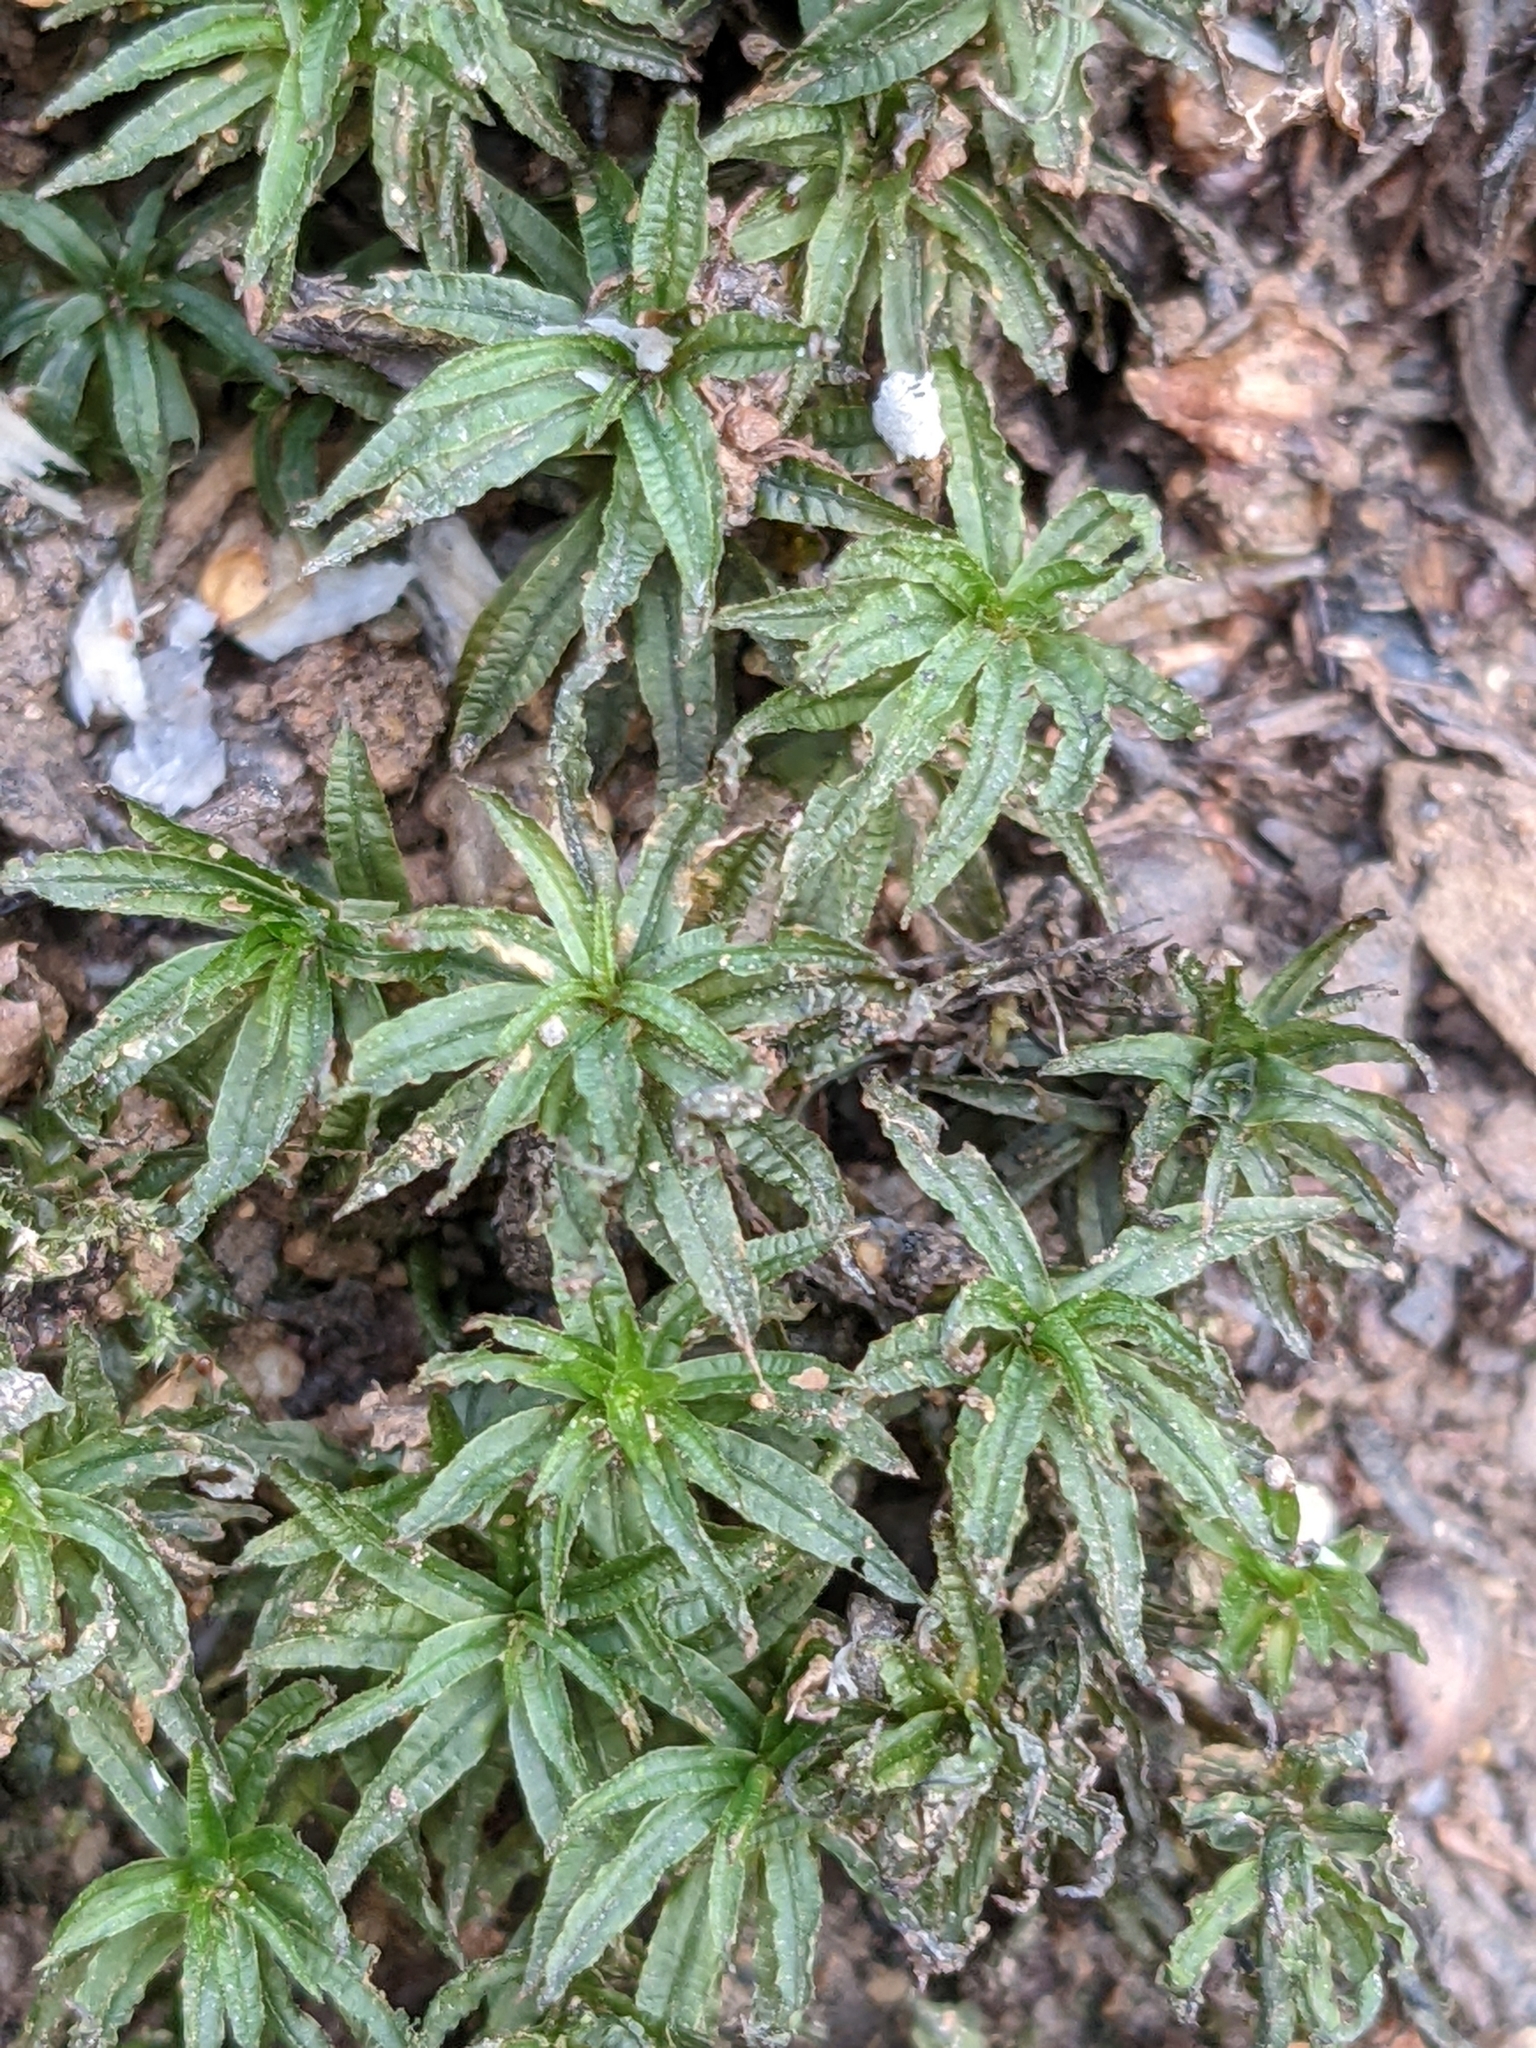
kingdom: Plantae
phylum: Bryophyta
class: Polytrichopsida
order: Polytrichales
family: Polytrichaceae
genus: Atrichum
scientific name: Atrichum undulatum
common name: Common smoothcap
